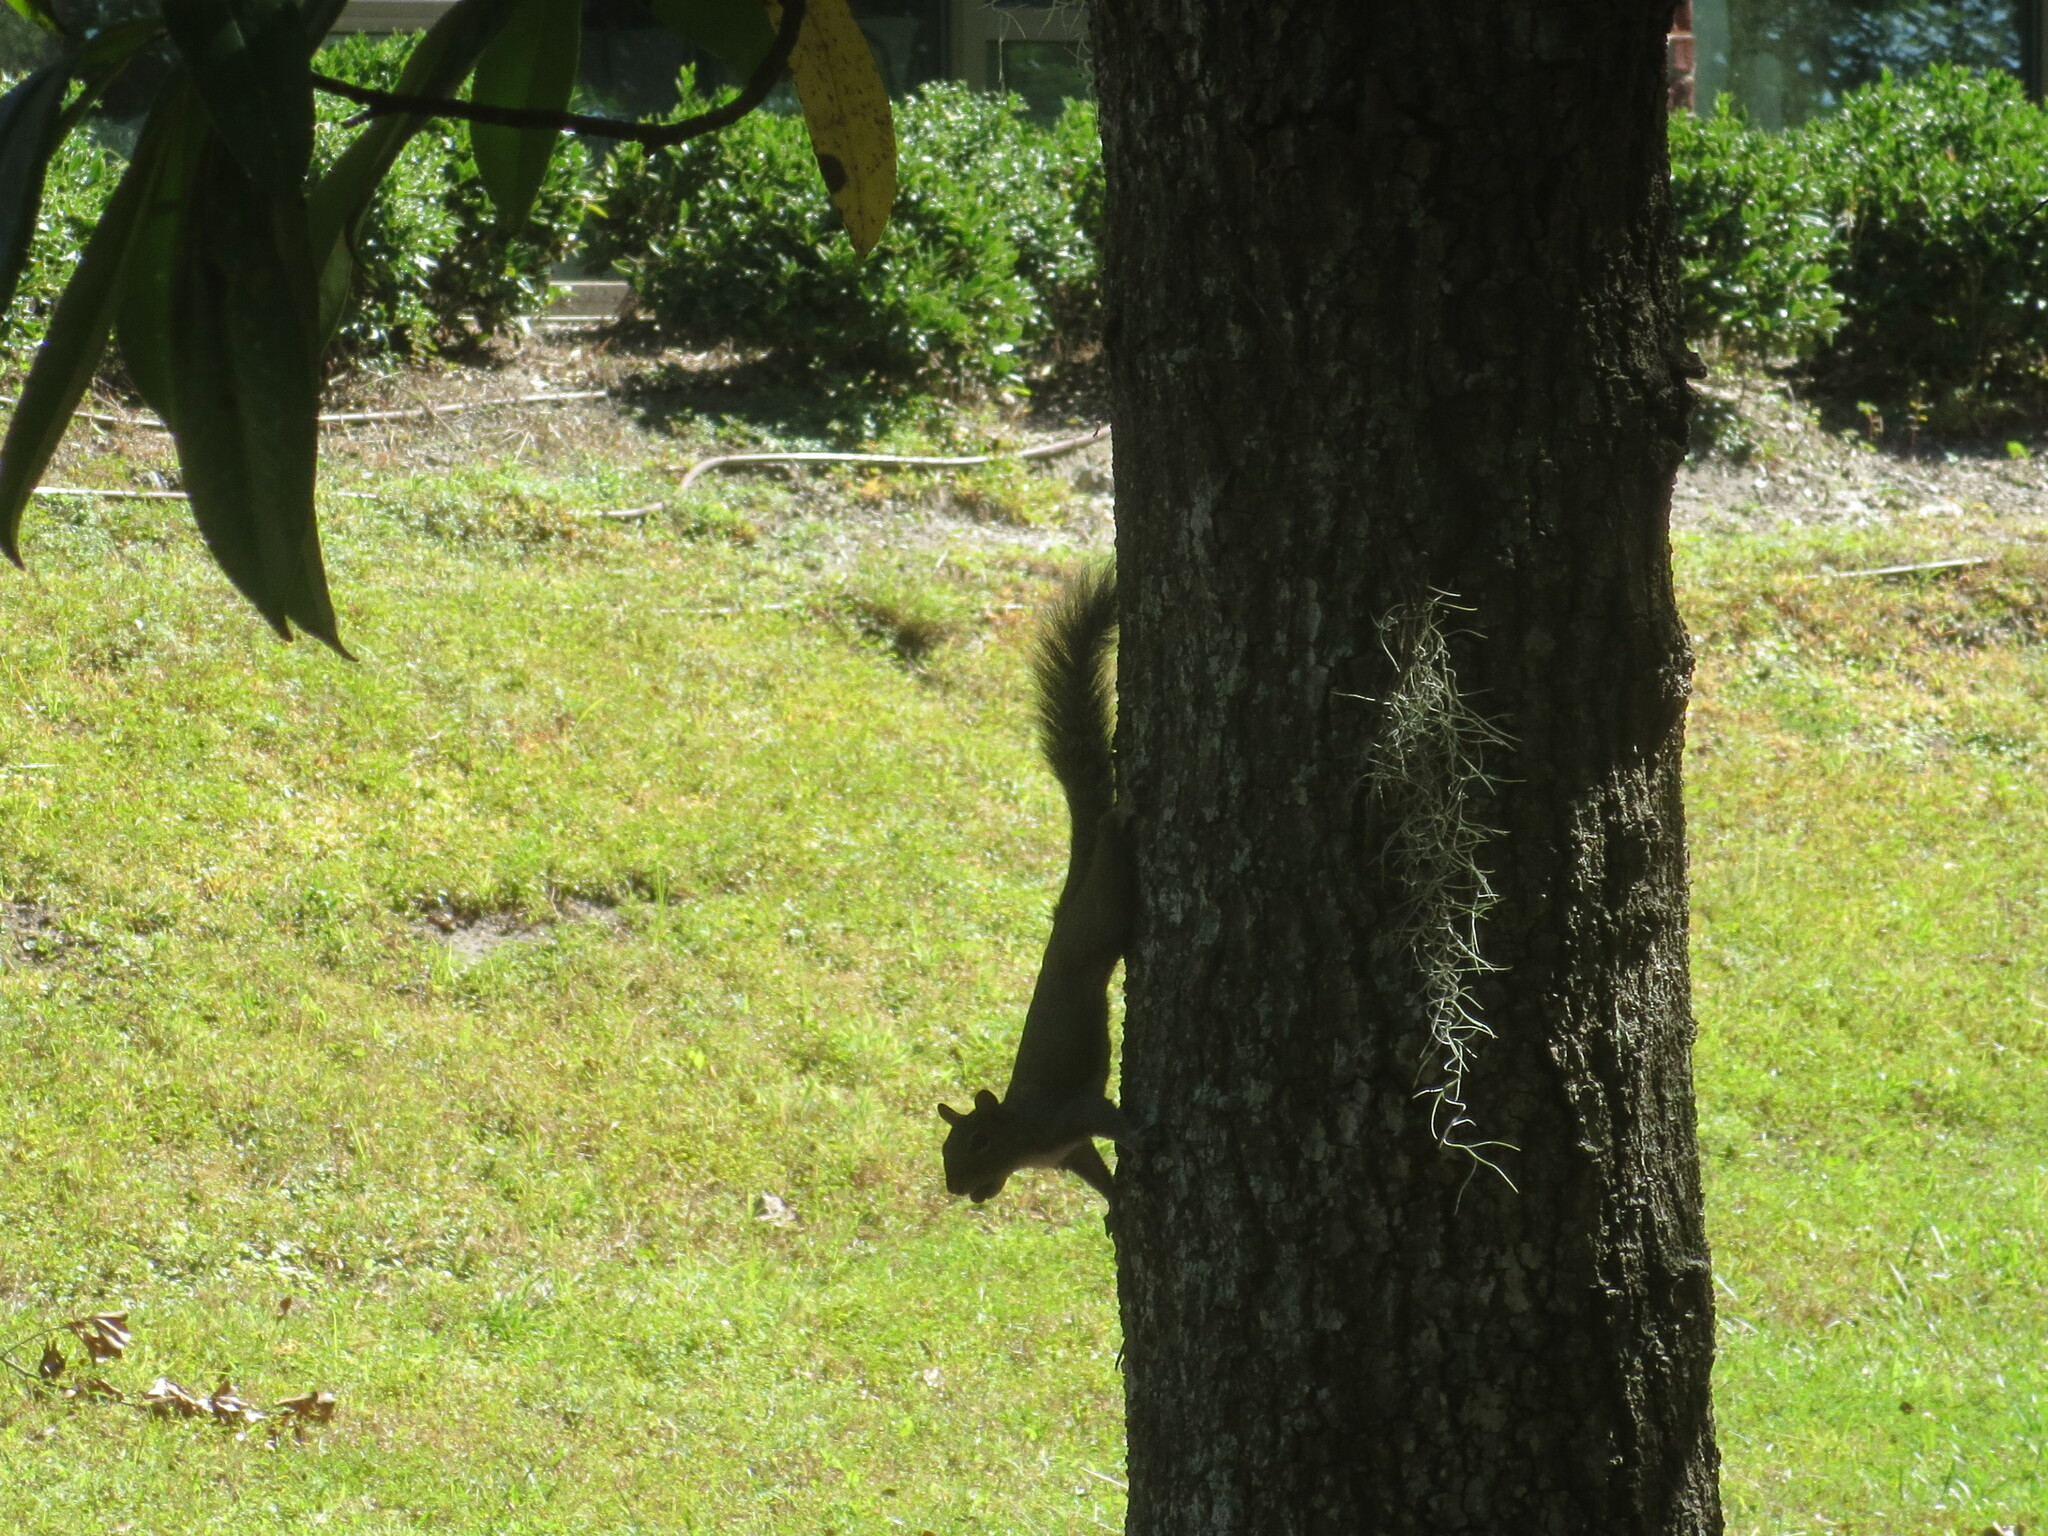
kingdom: Animalia
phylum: Chordata
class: Mammalia
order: Rodentia
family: Sciuridae
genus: Sciurus
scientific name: Sciurus carolinensis
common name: Eastern gray squirrel
